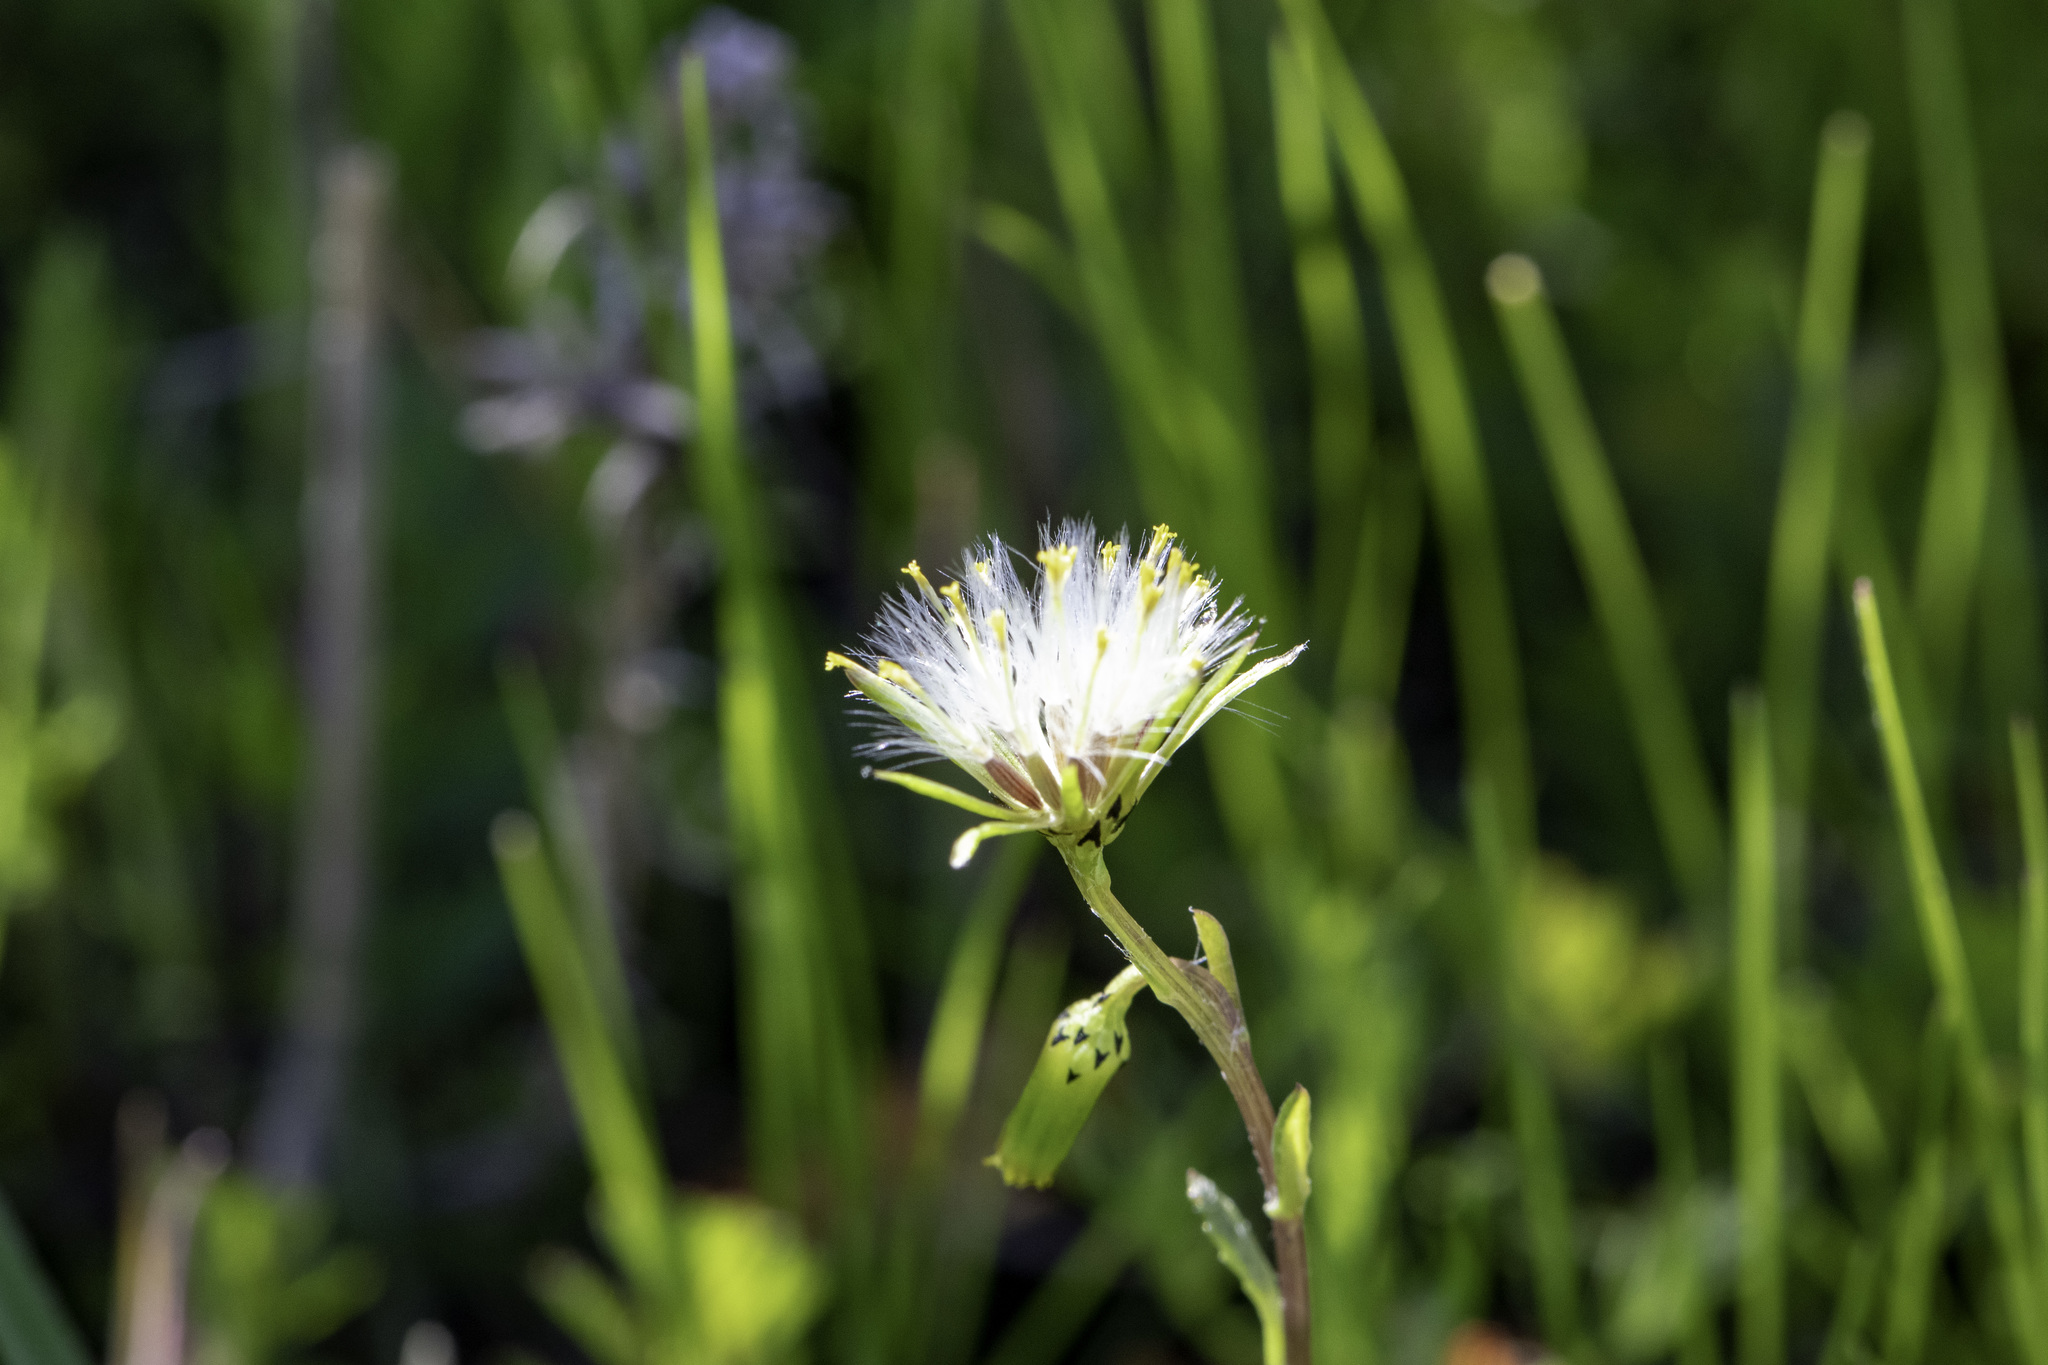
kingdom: Plantae
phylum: Tracheophyta
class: Magnoliopsida
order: Asterales
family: Asteraceae
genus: Senecio
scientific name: Senecio vulgaris
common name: Old-man-in-the-spring
